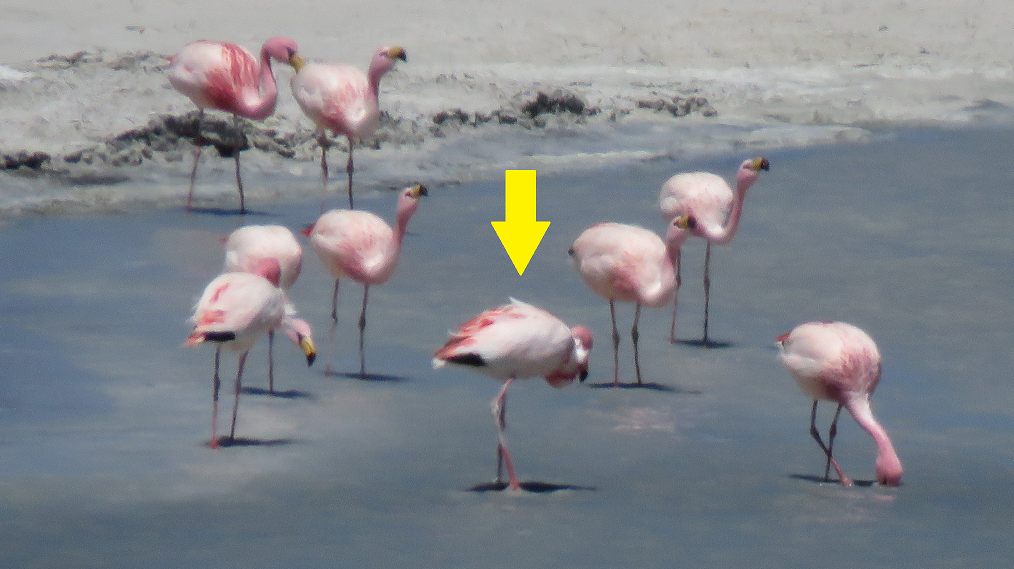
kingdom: Animalia
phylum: Chordata
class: Aves
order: Phoenicopteriformes
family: Phoenicopteridae
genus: Phoenicopterus
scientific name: Phoenicopterus chilensis
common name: Chilean flamingo
